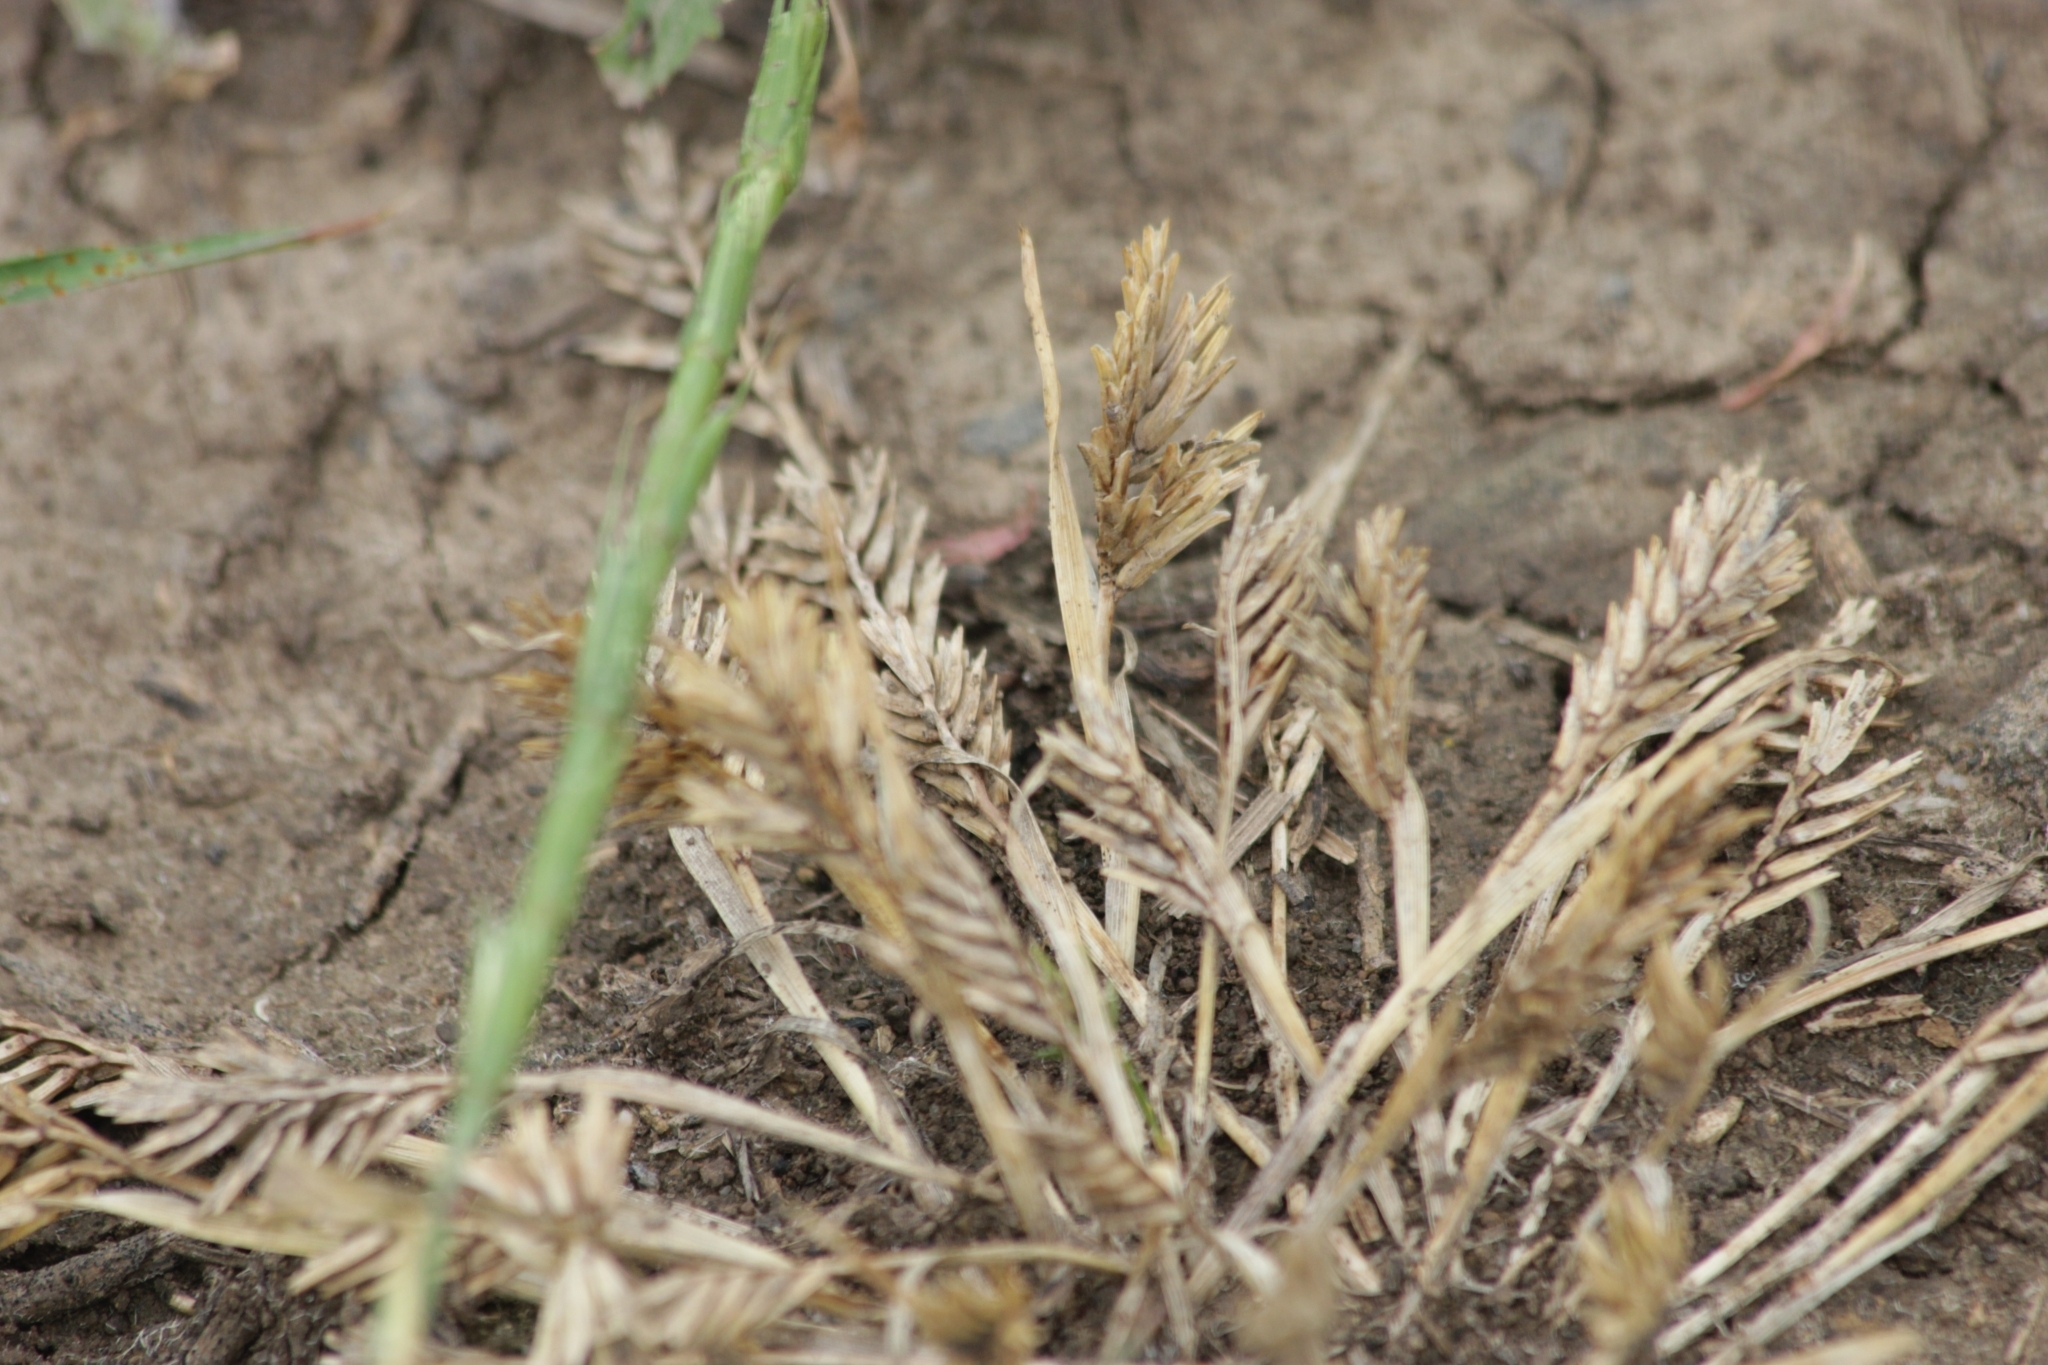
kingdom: Plantae
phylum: Tracheophyta
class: Liliopsida
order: Poales
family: Poaceae
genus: Sclerochloa
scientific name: Sclerochloa dura
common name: Common hardgrass
